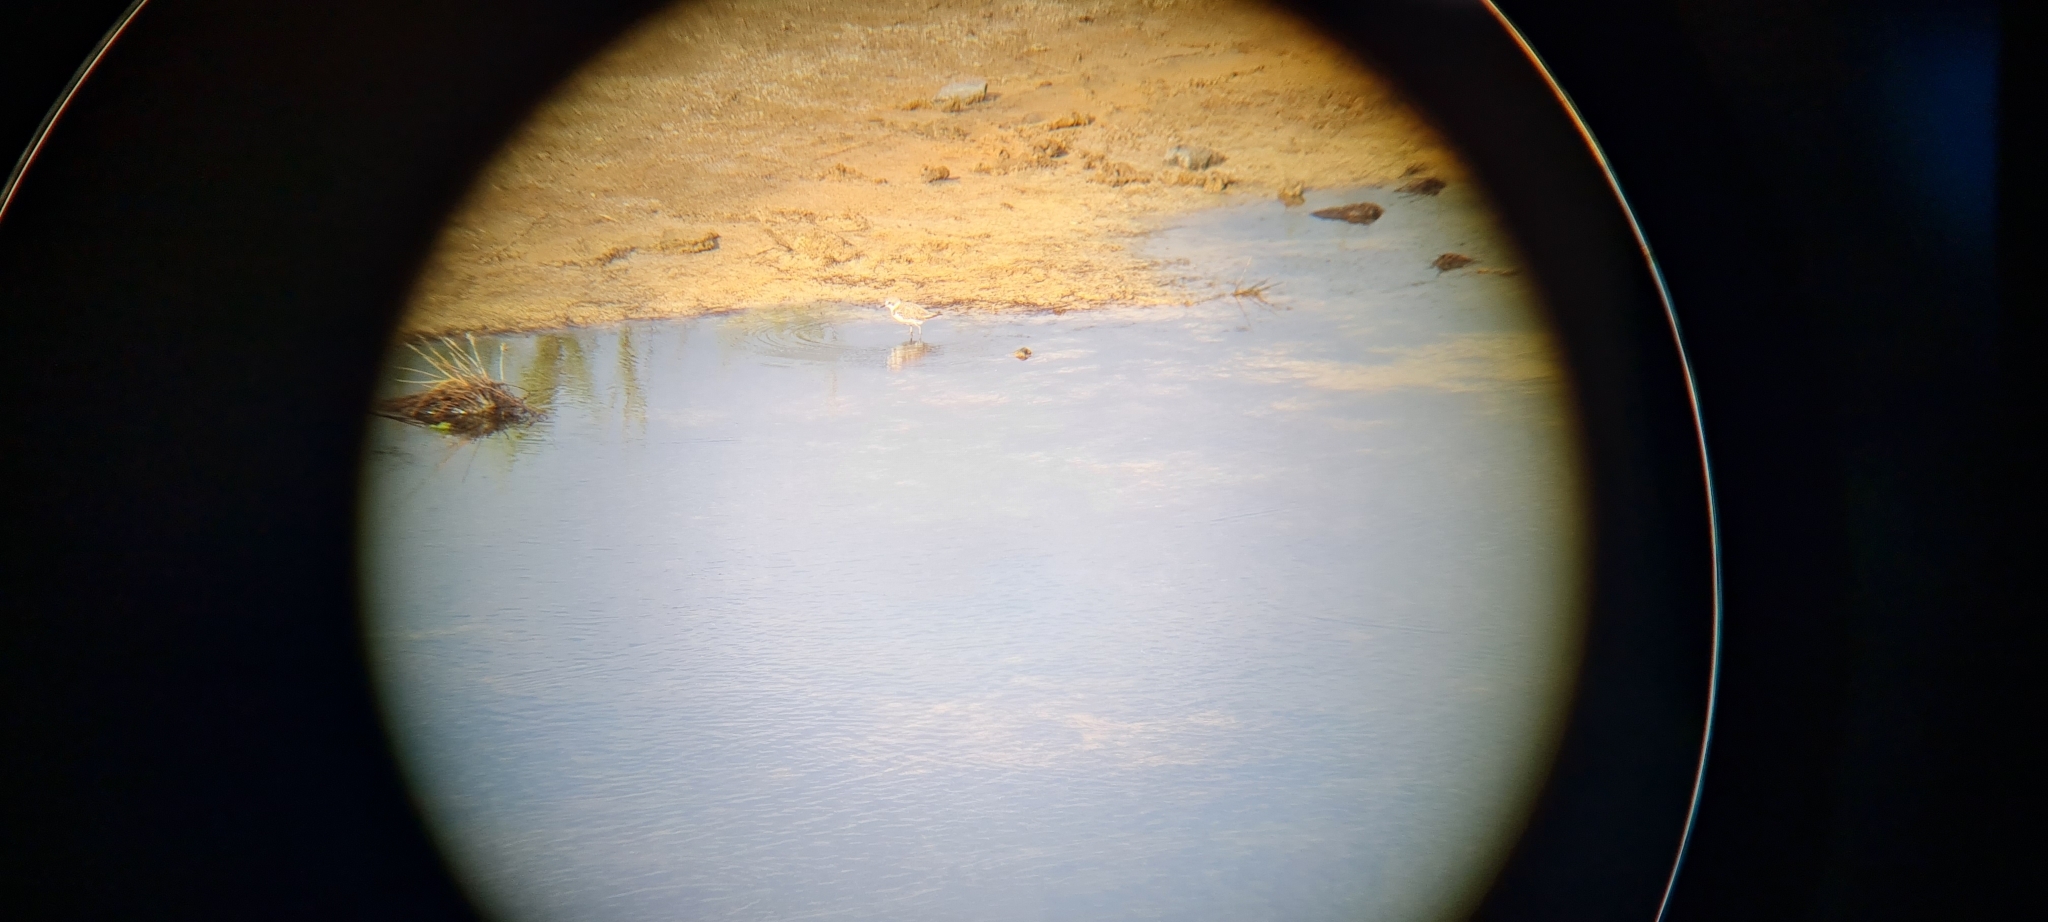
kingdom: Animalia
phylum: Chordata
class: Aves
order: Charadriiformes
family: Charadriidae
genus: Charadrius
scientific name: Charadrius alexandrinus
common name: Kentish plover
